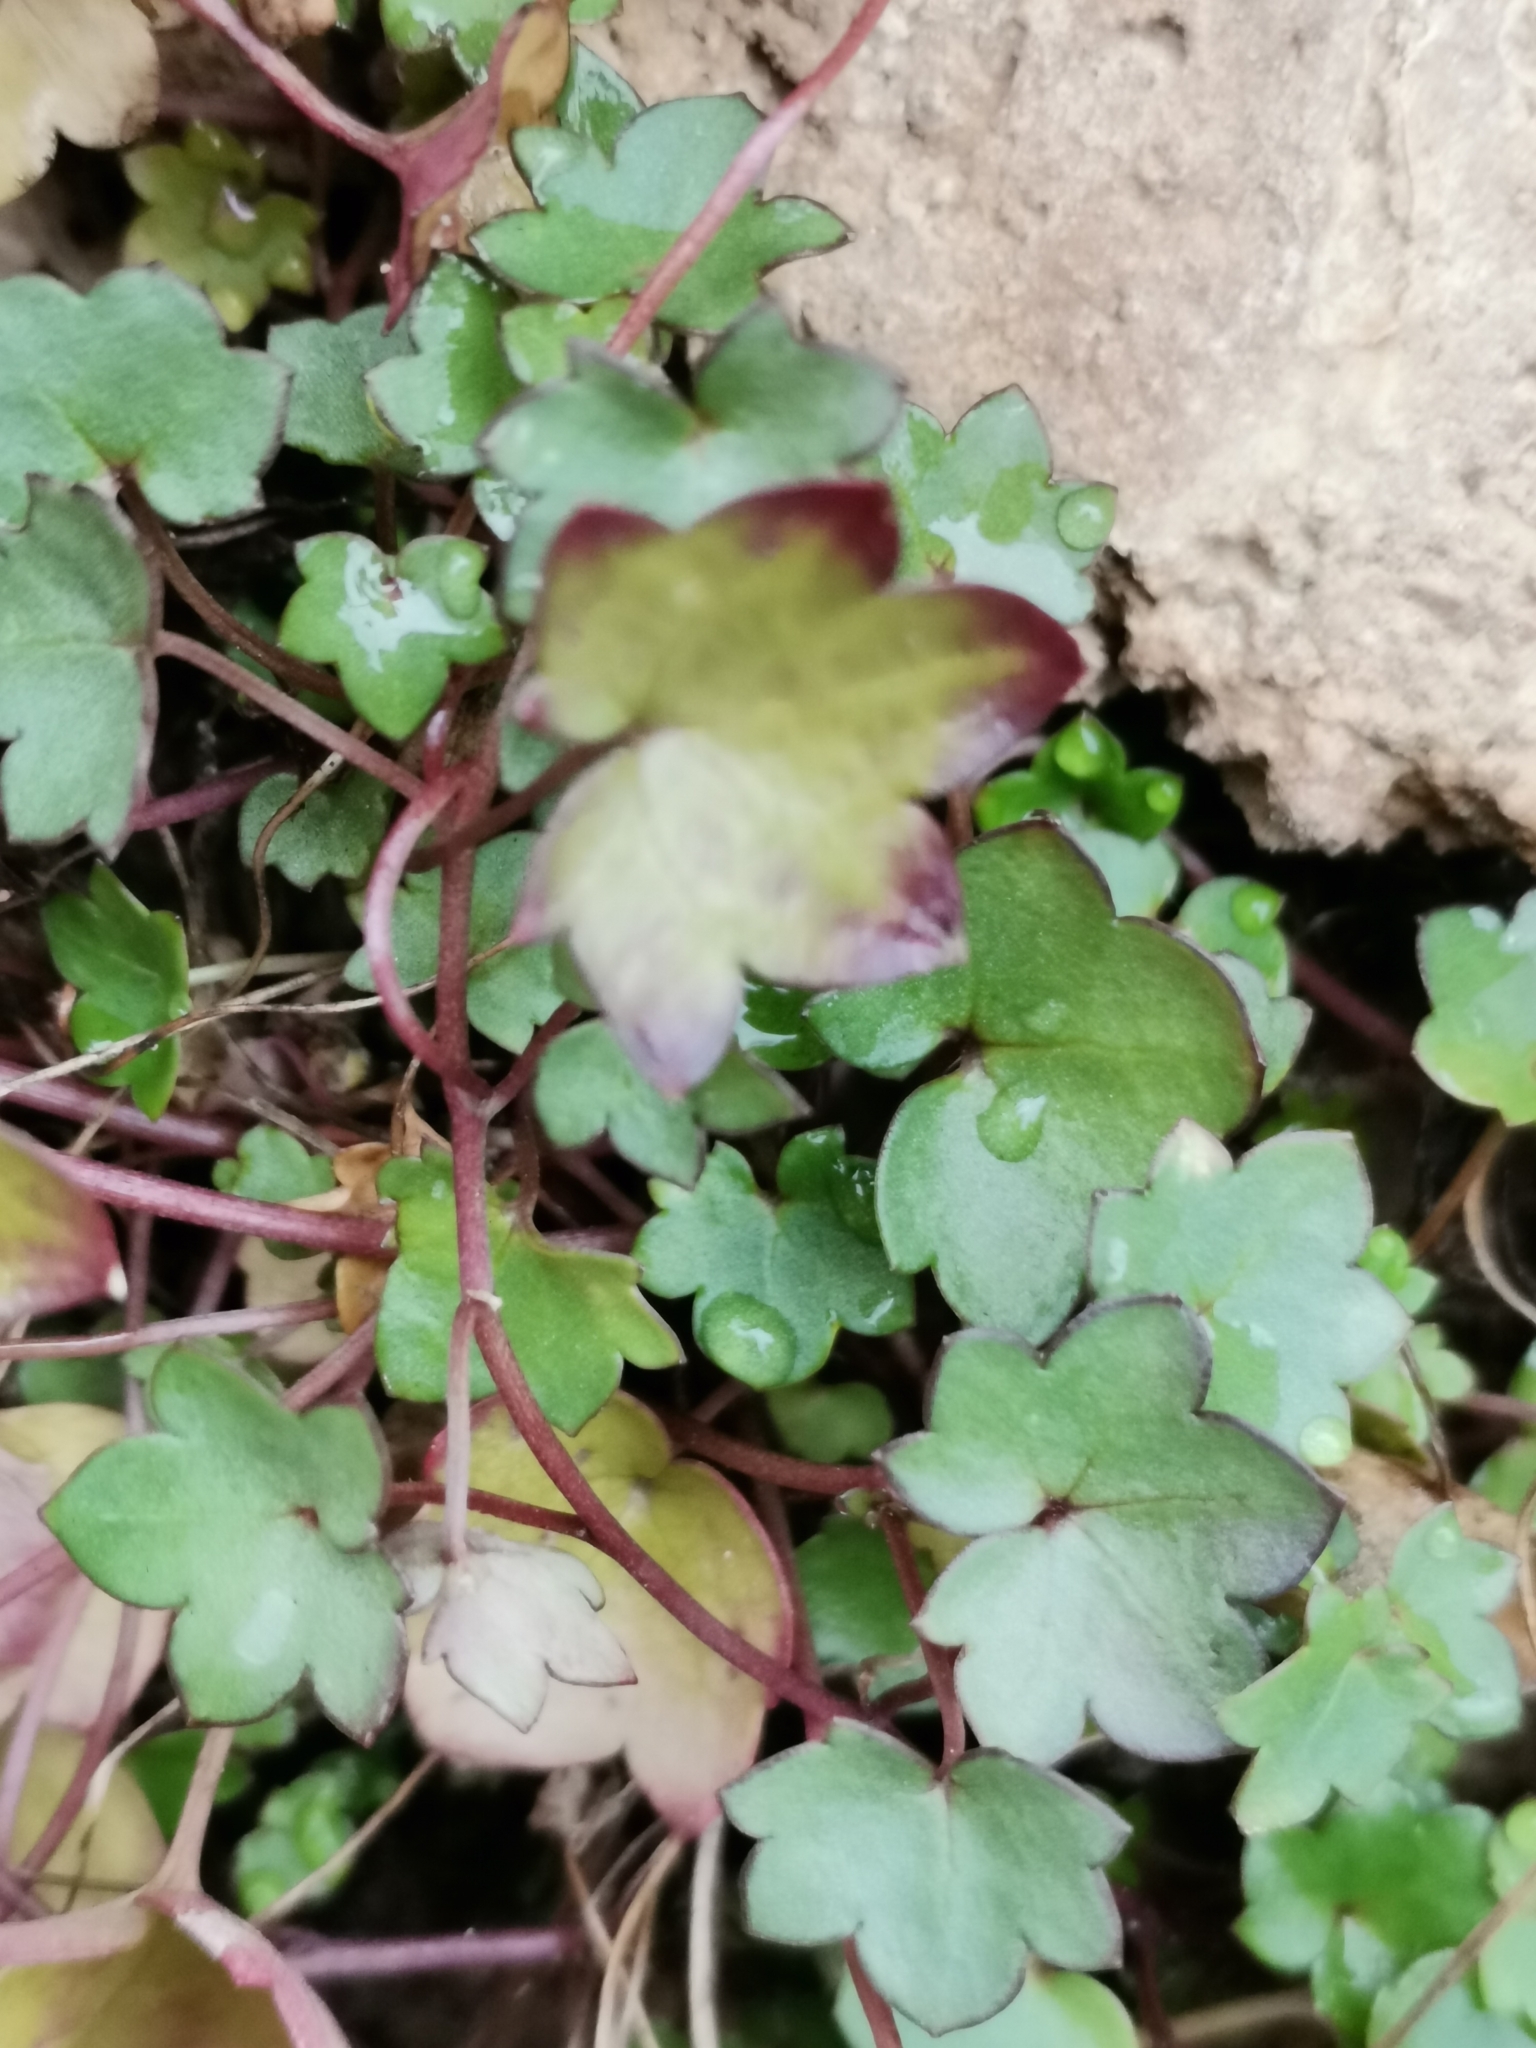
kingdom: Plantae
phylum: Tracheophyta
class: Magnoliopsida
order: Lamiales
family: Plantaginaceae
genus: Cymbalaria
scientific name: Cymbalaria muralis
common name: Ivy-leaved toadflax
